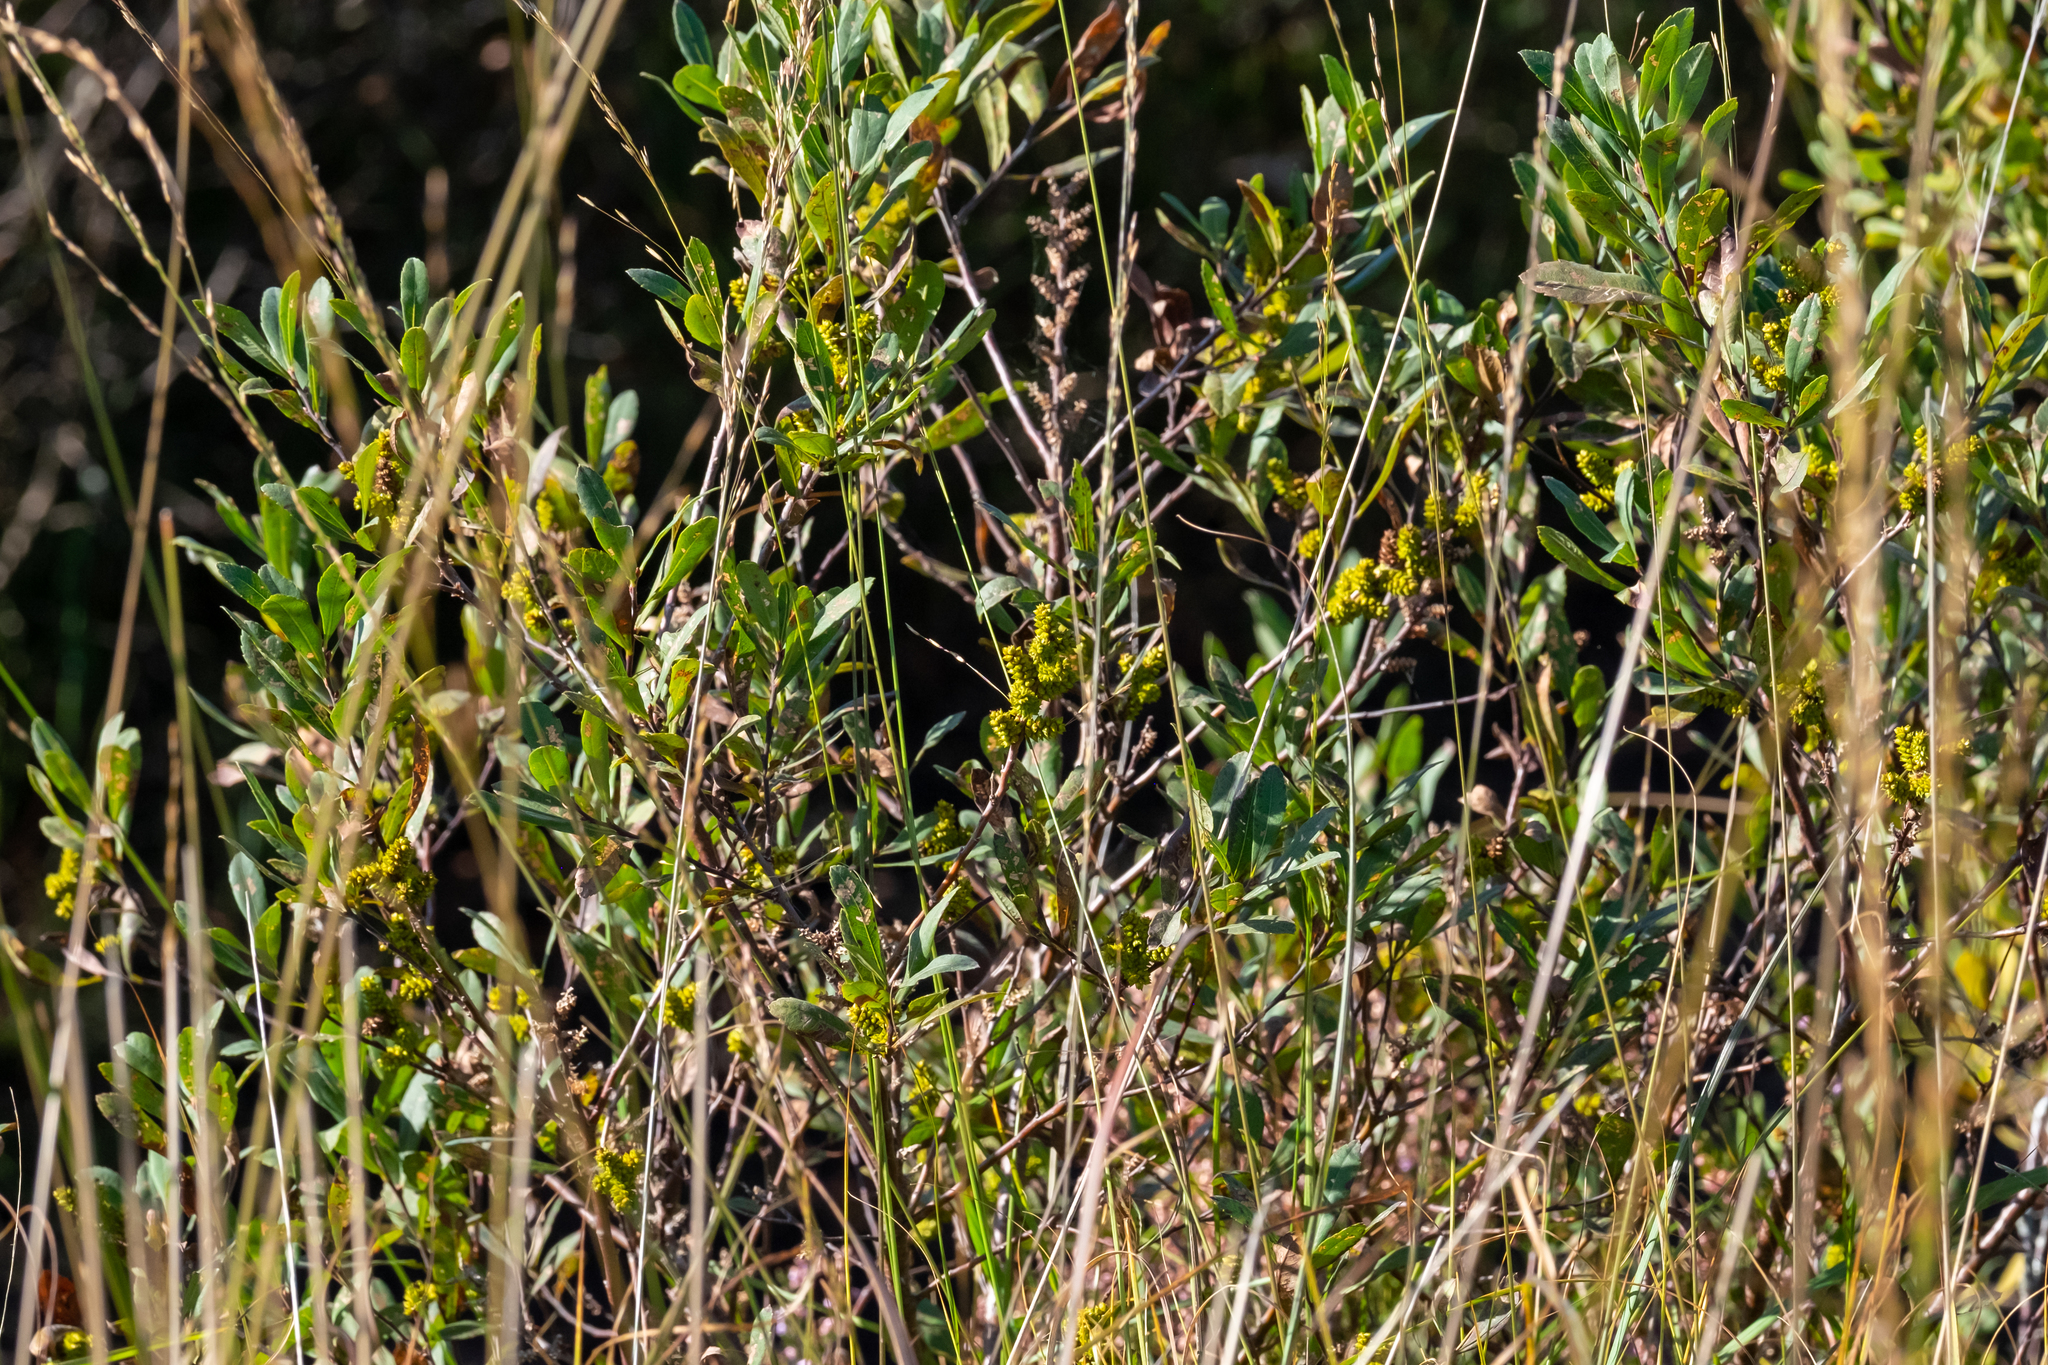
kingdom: Plantae
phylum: Tracheophyta
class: Magnoliopsida
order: Fagales
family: Myricaceae
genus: Myrica
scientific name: Myrica gale
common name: Sweet gale
